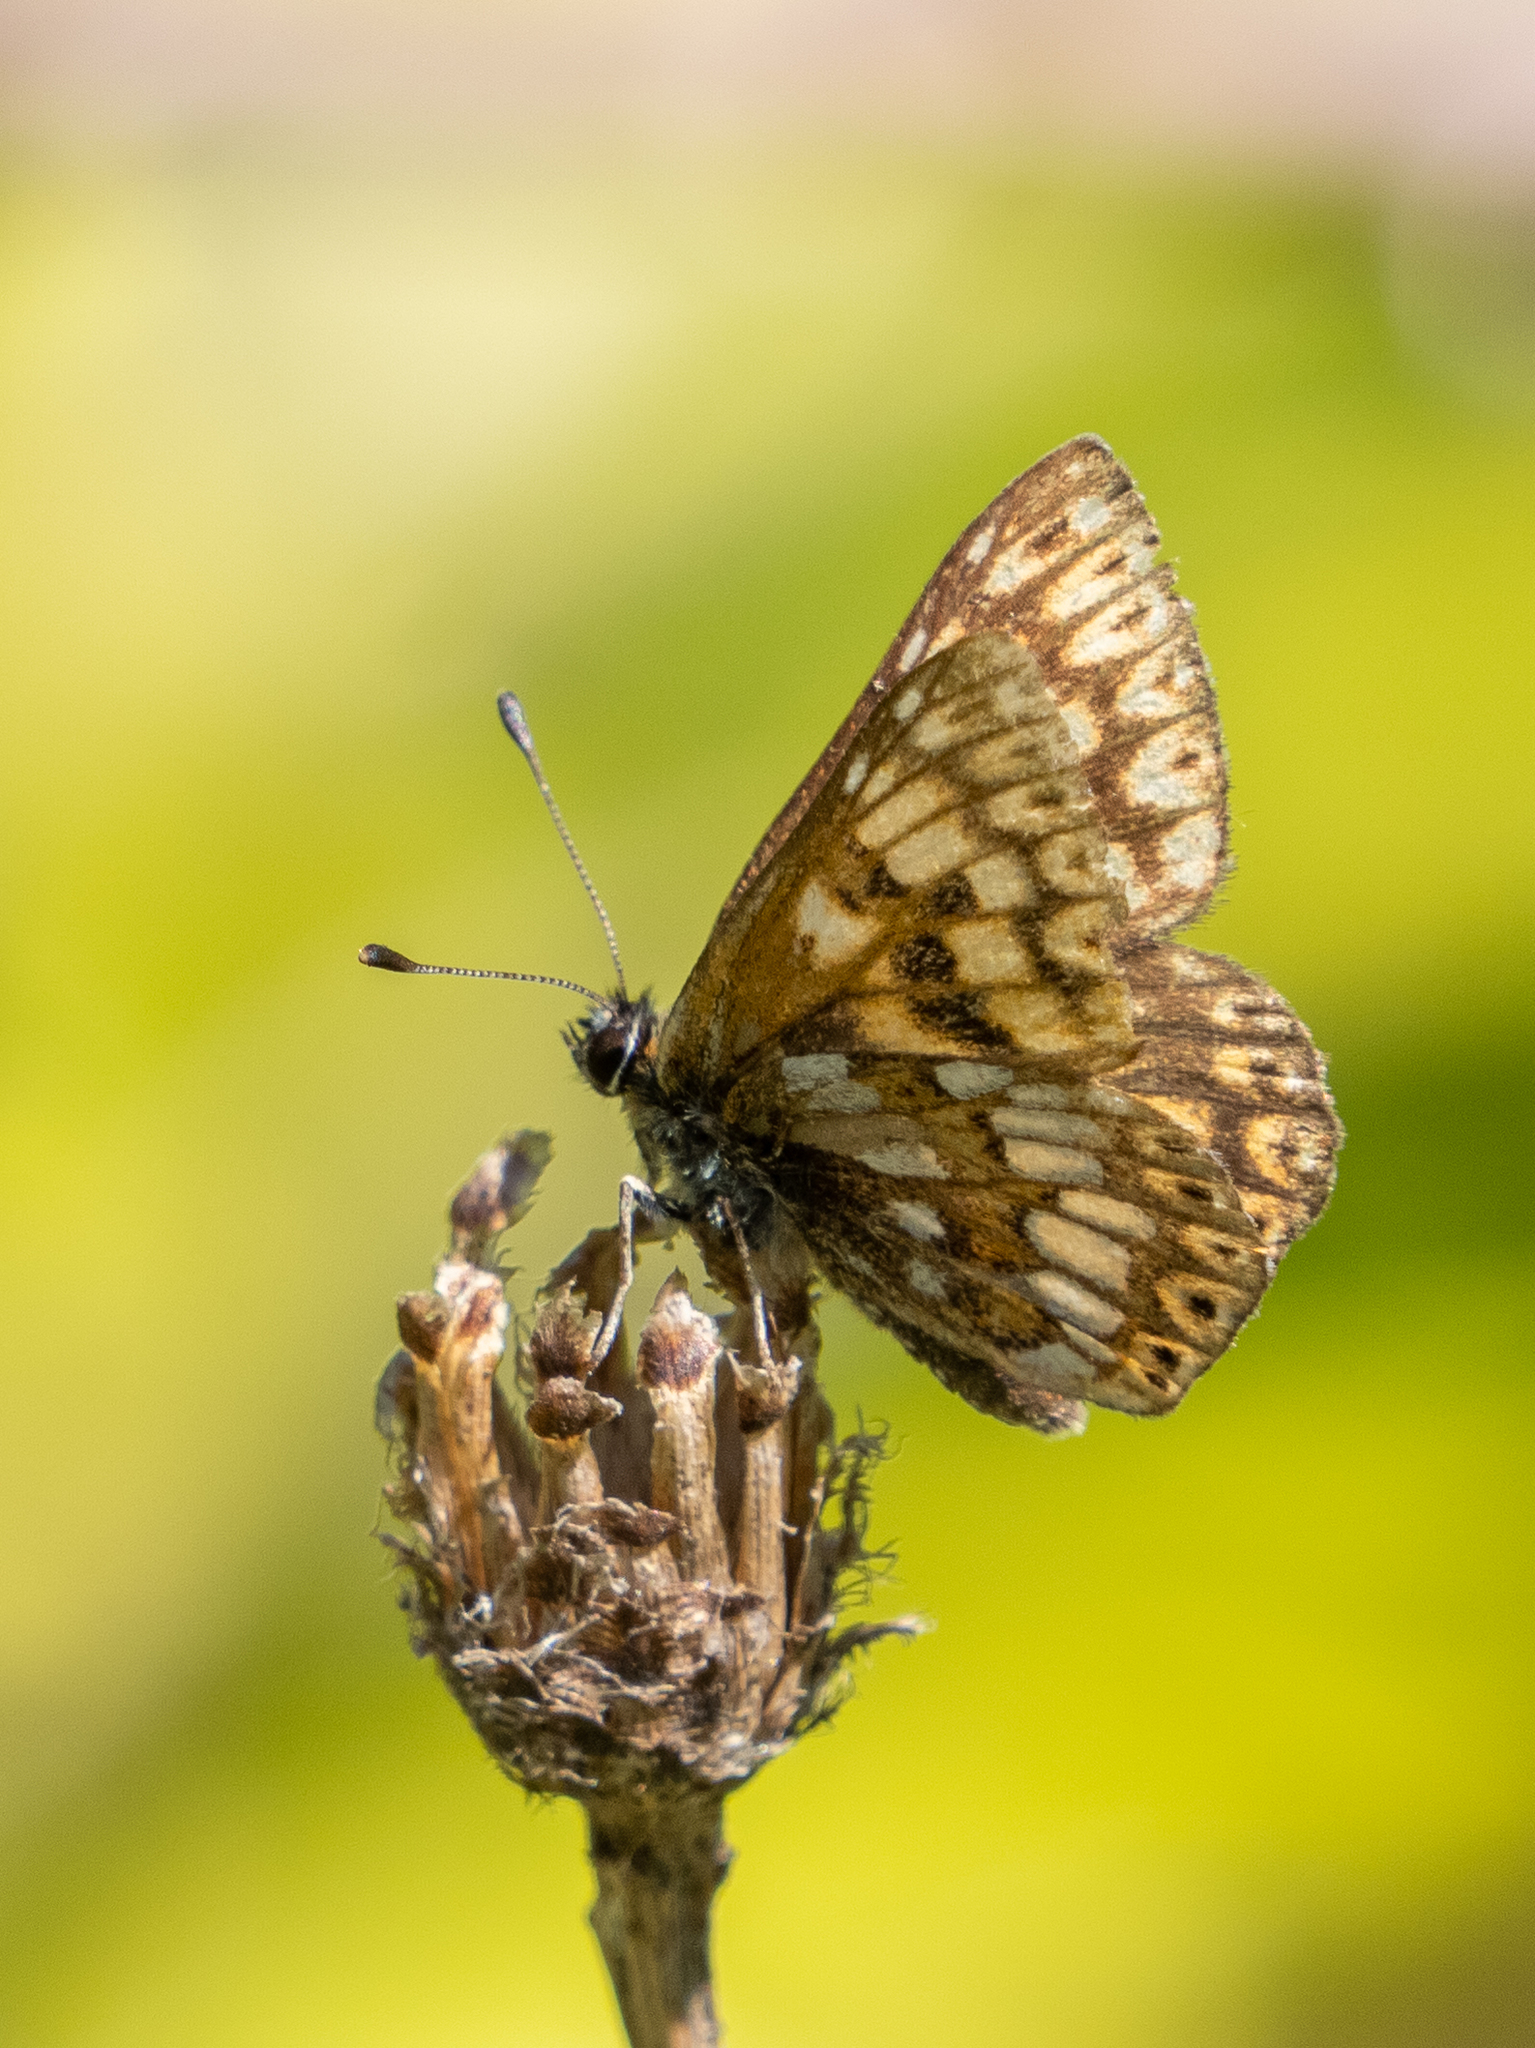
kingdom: Animalia
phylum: Arthropoda
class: Insecta
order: Lepidoptera
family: Riodinidae
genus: Hamearis
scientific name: Hamearis lucina
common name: Duke of burgundy fritillary
